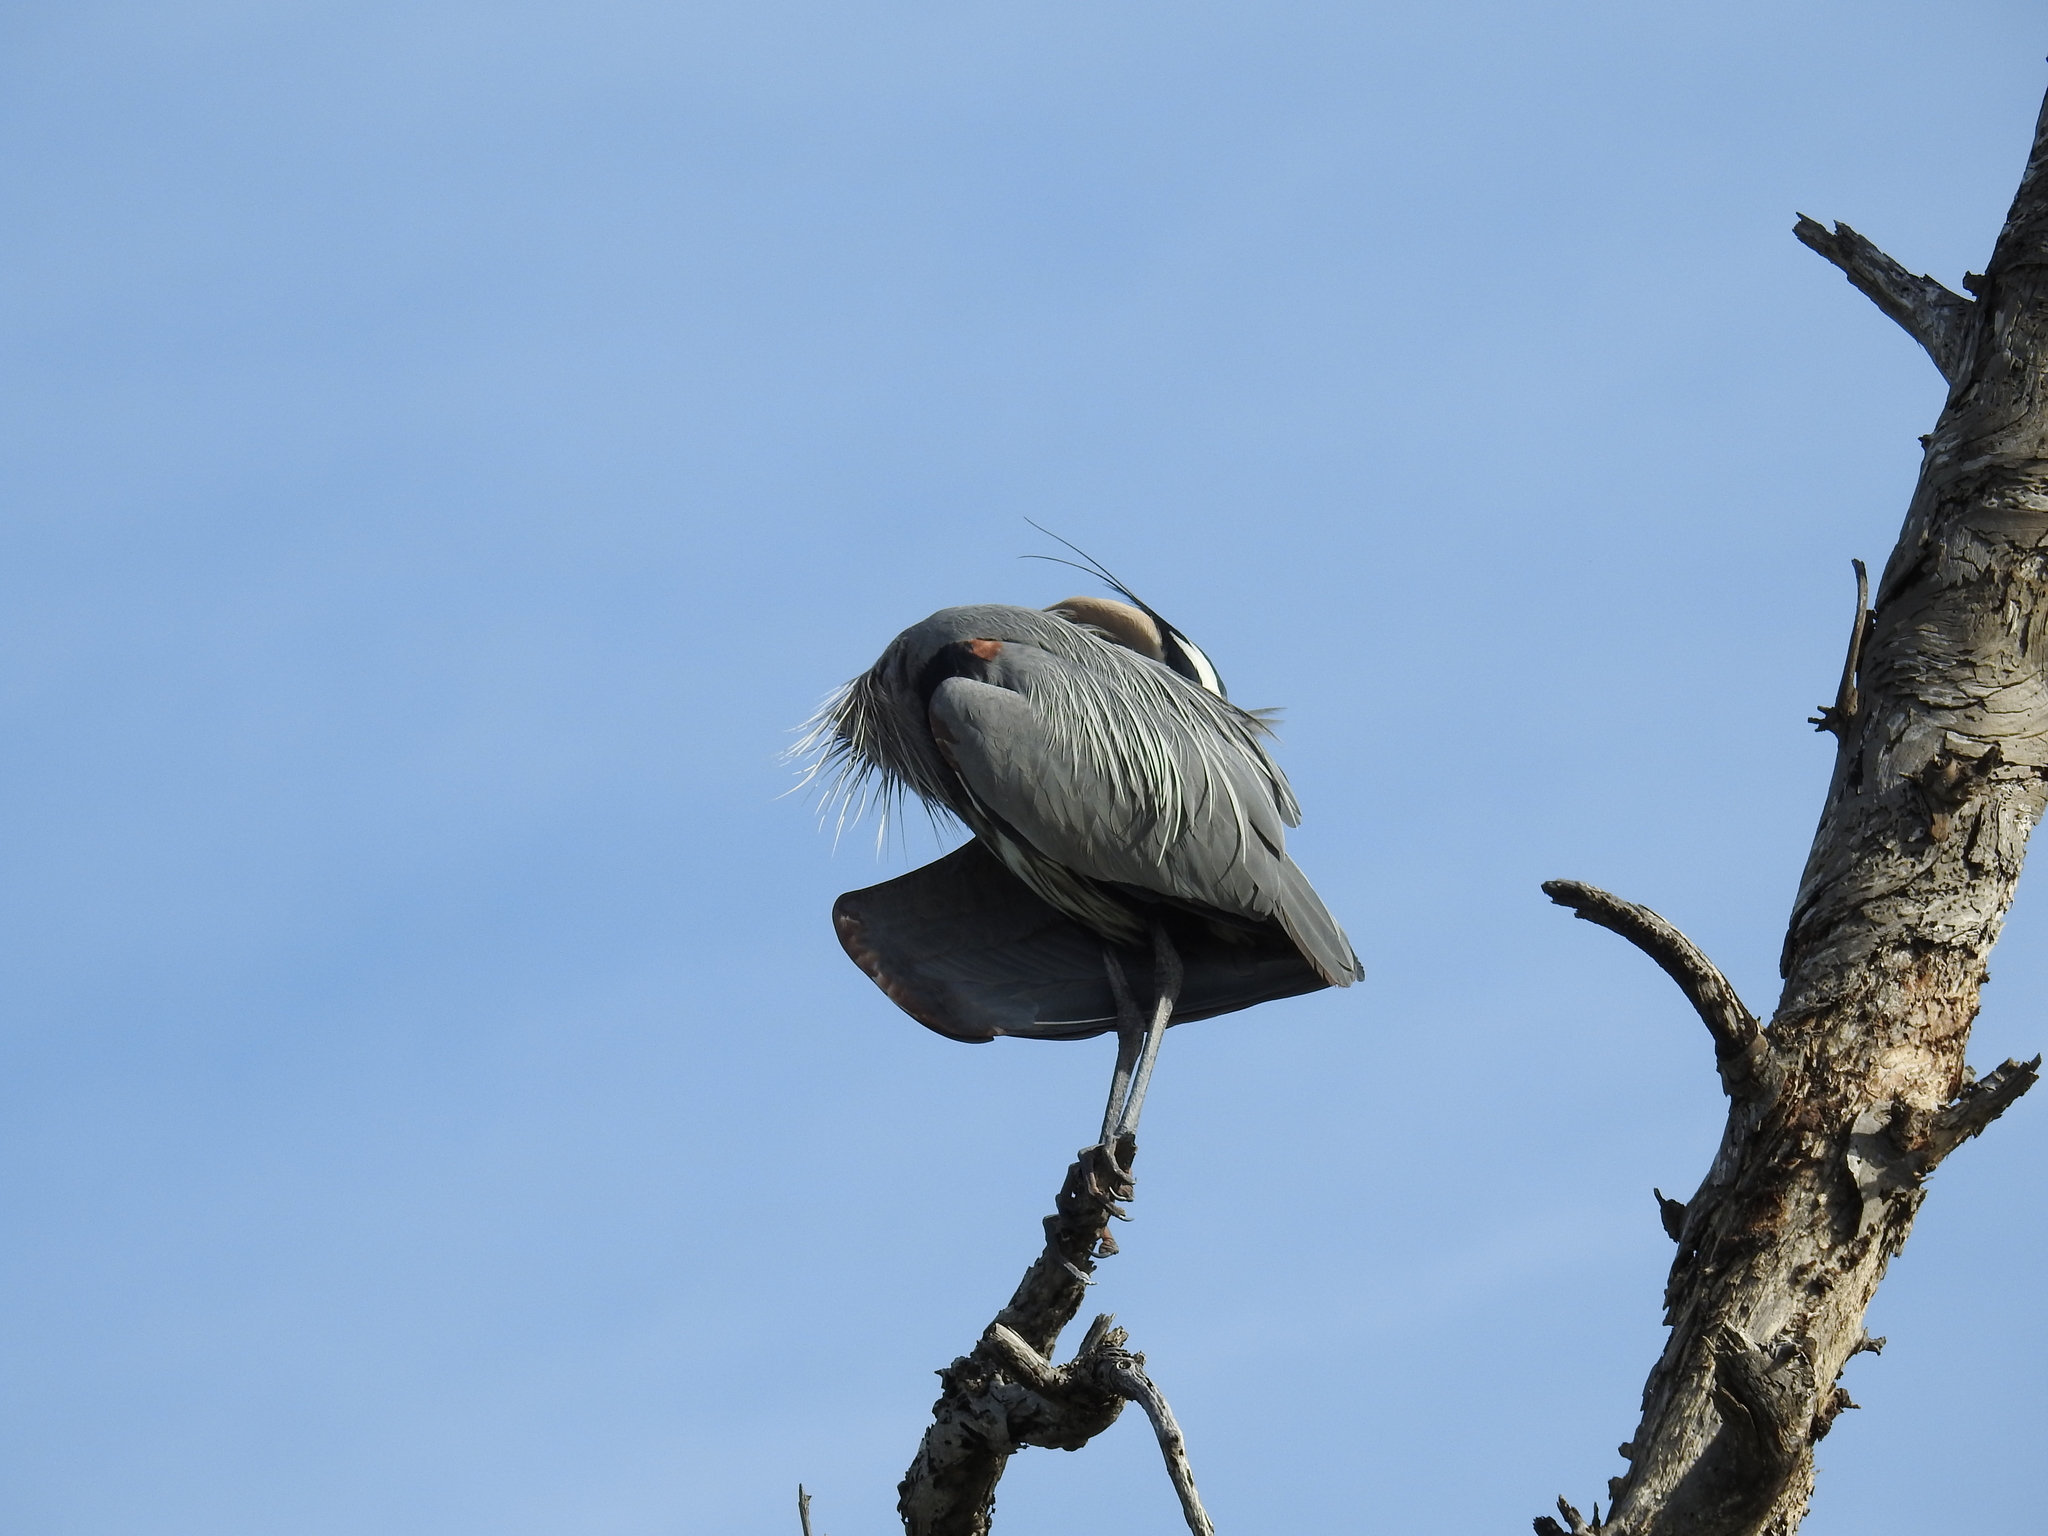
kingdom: Animalia
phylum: Chordata
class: Aves
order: Pelecaniformes
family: Ardeidae
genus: Ardea
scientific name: Ardea herodias
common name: Great blue heron
